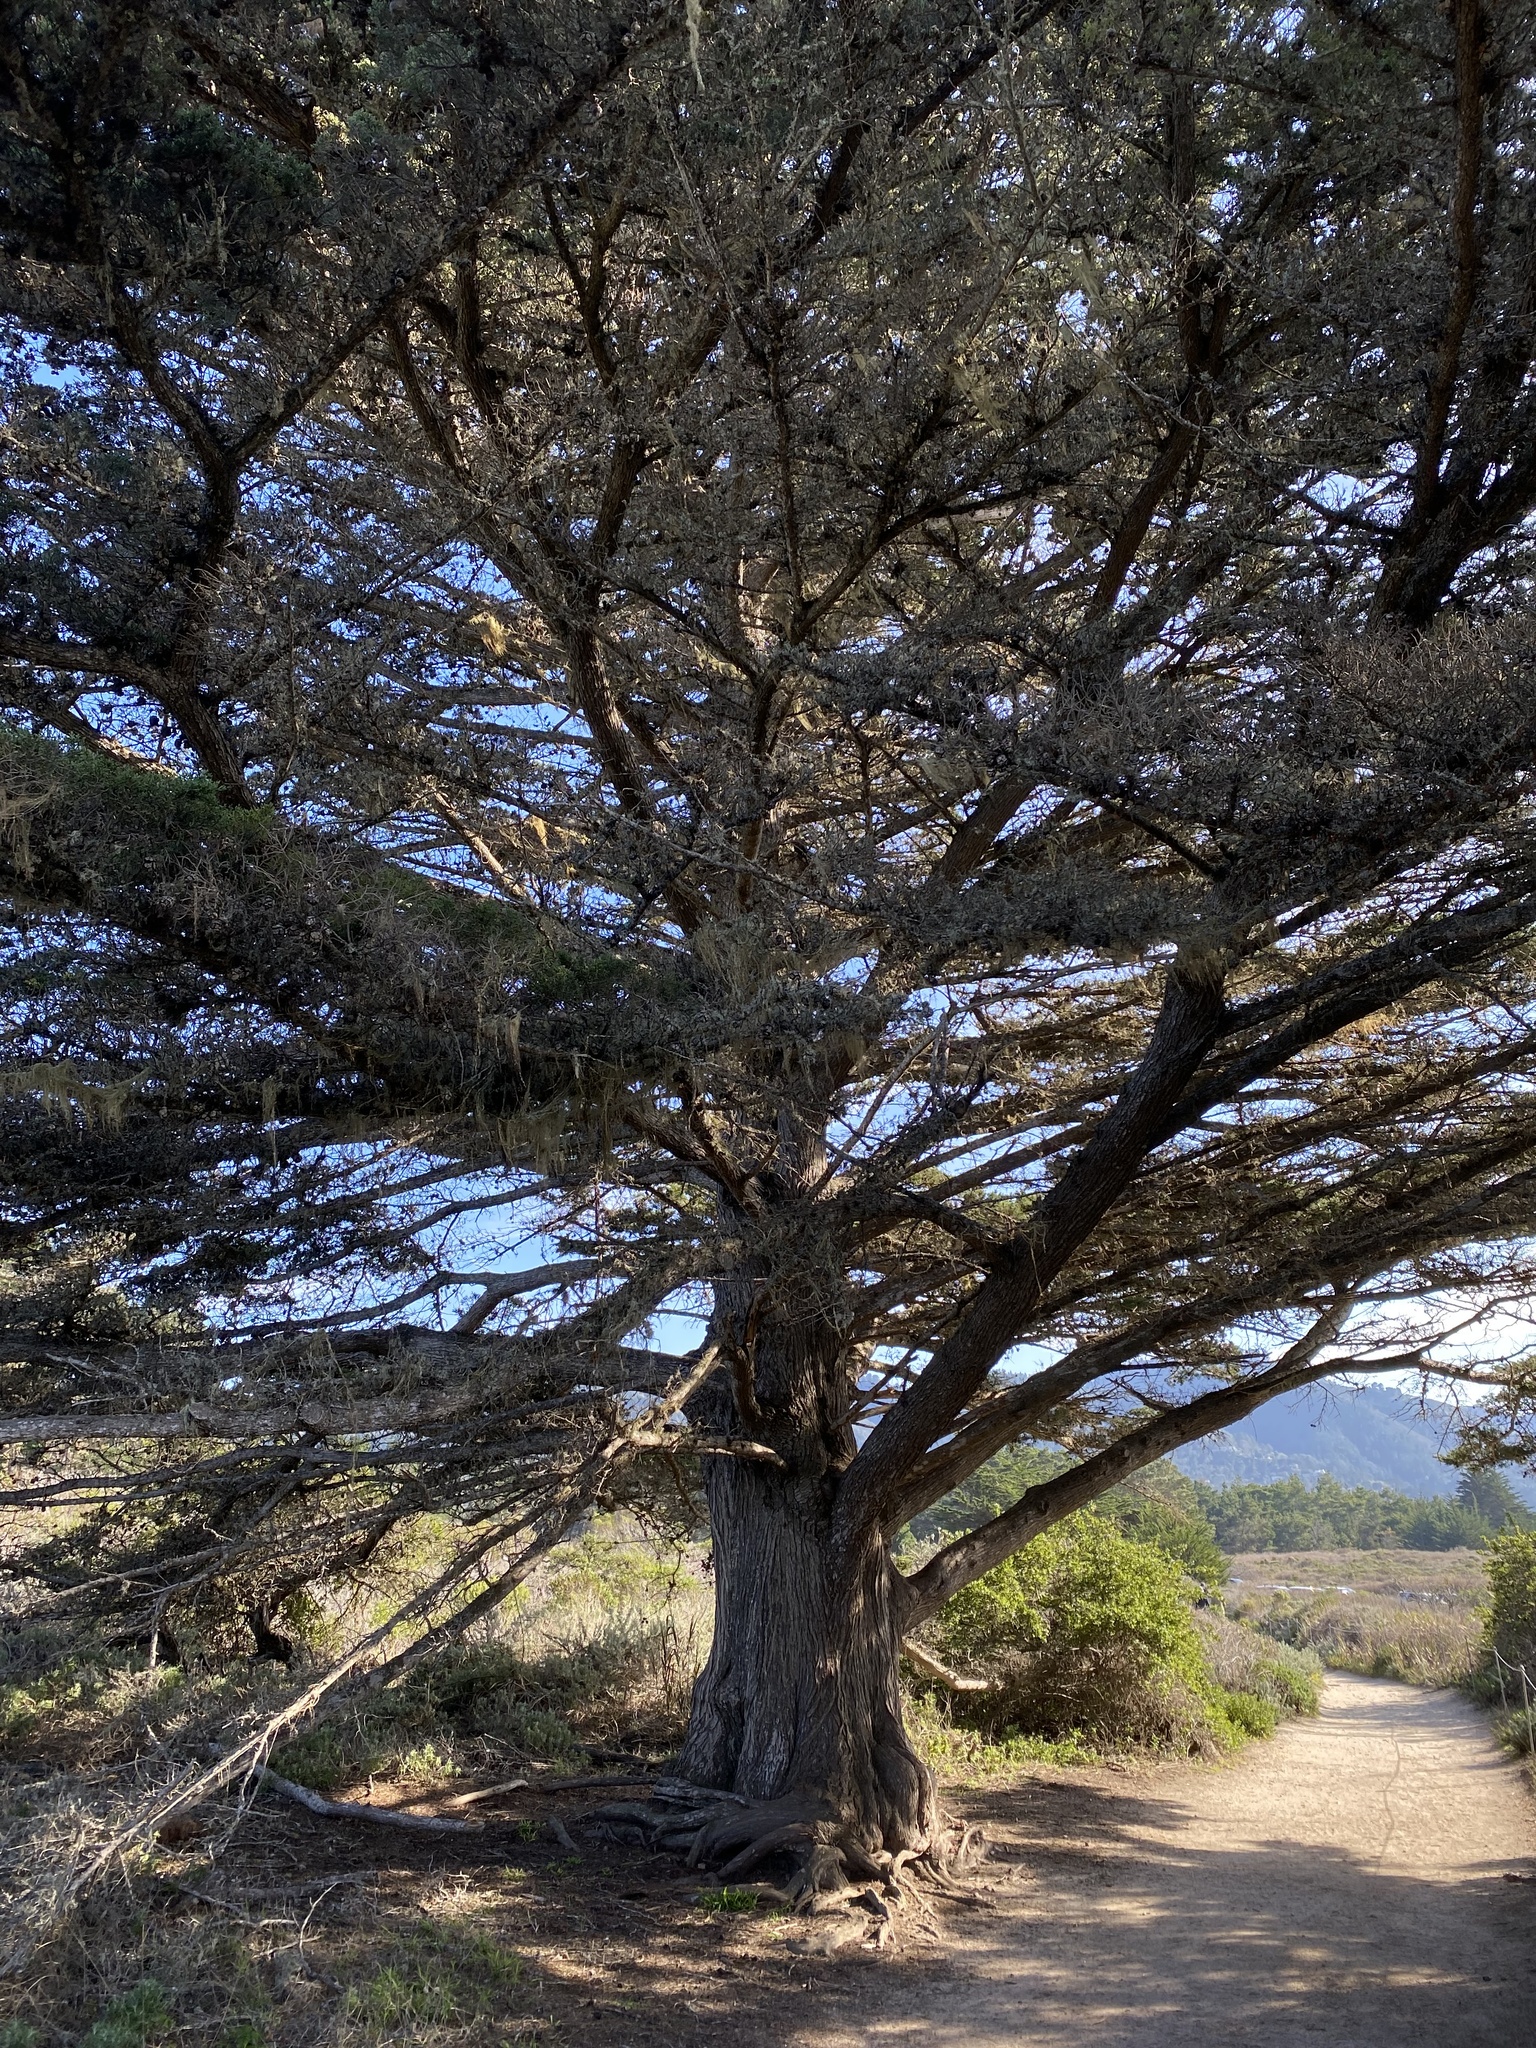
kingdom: Plantae
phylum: Tracheophyta
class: Pinopsida
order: Pinales
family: Cupressaceae
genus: Cupressus
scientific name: Cupressus macrocarpa
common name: Monterey cypress
